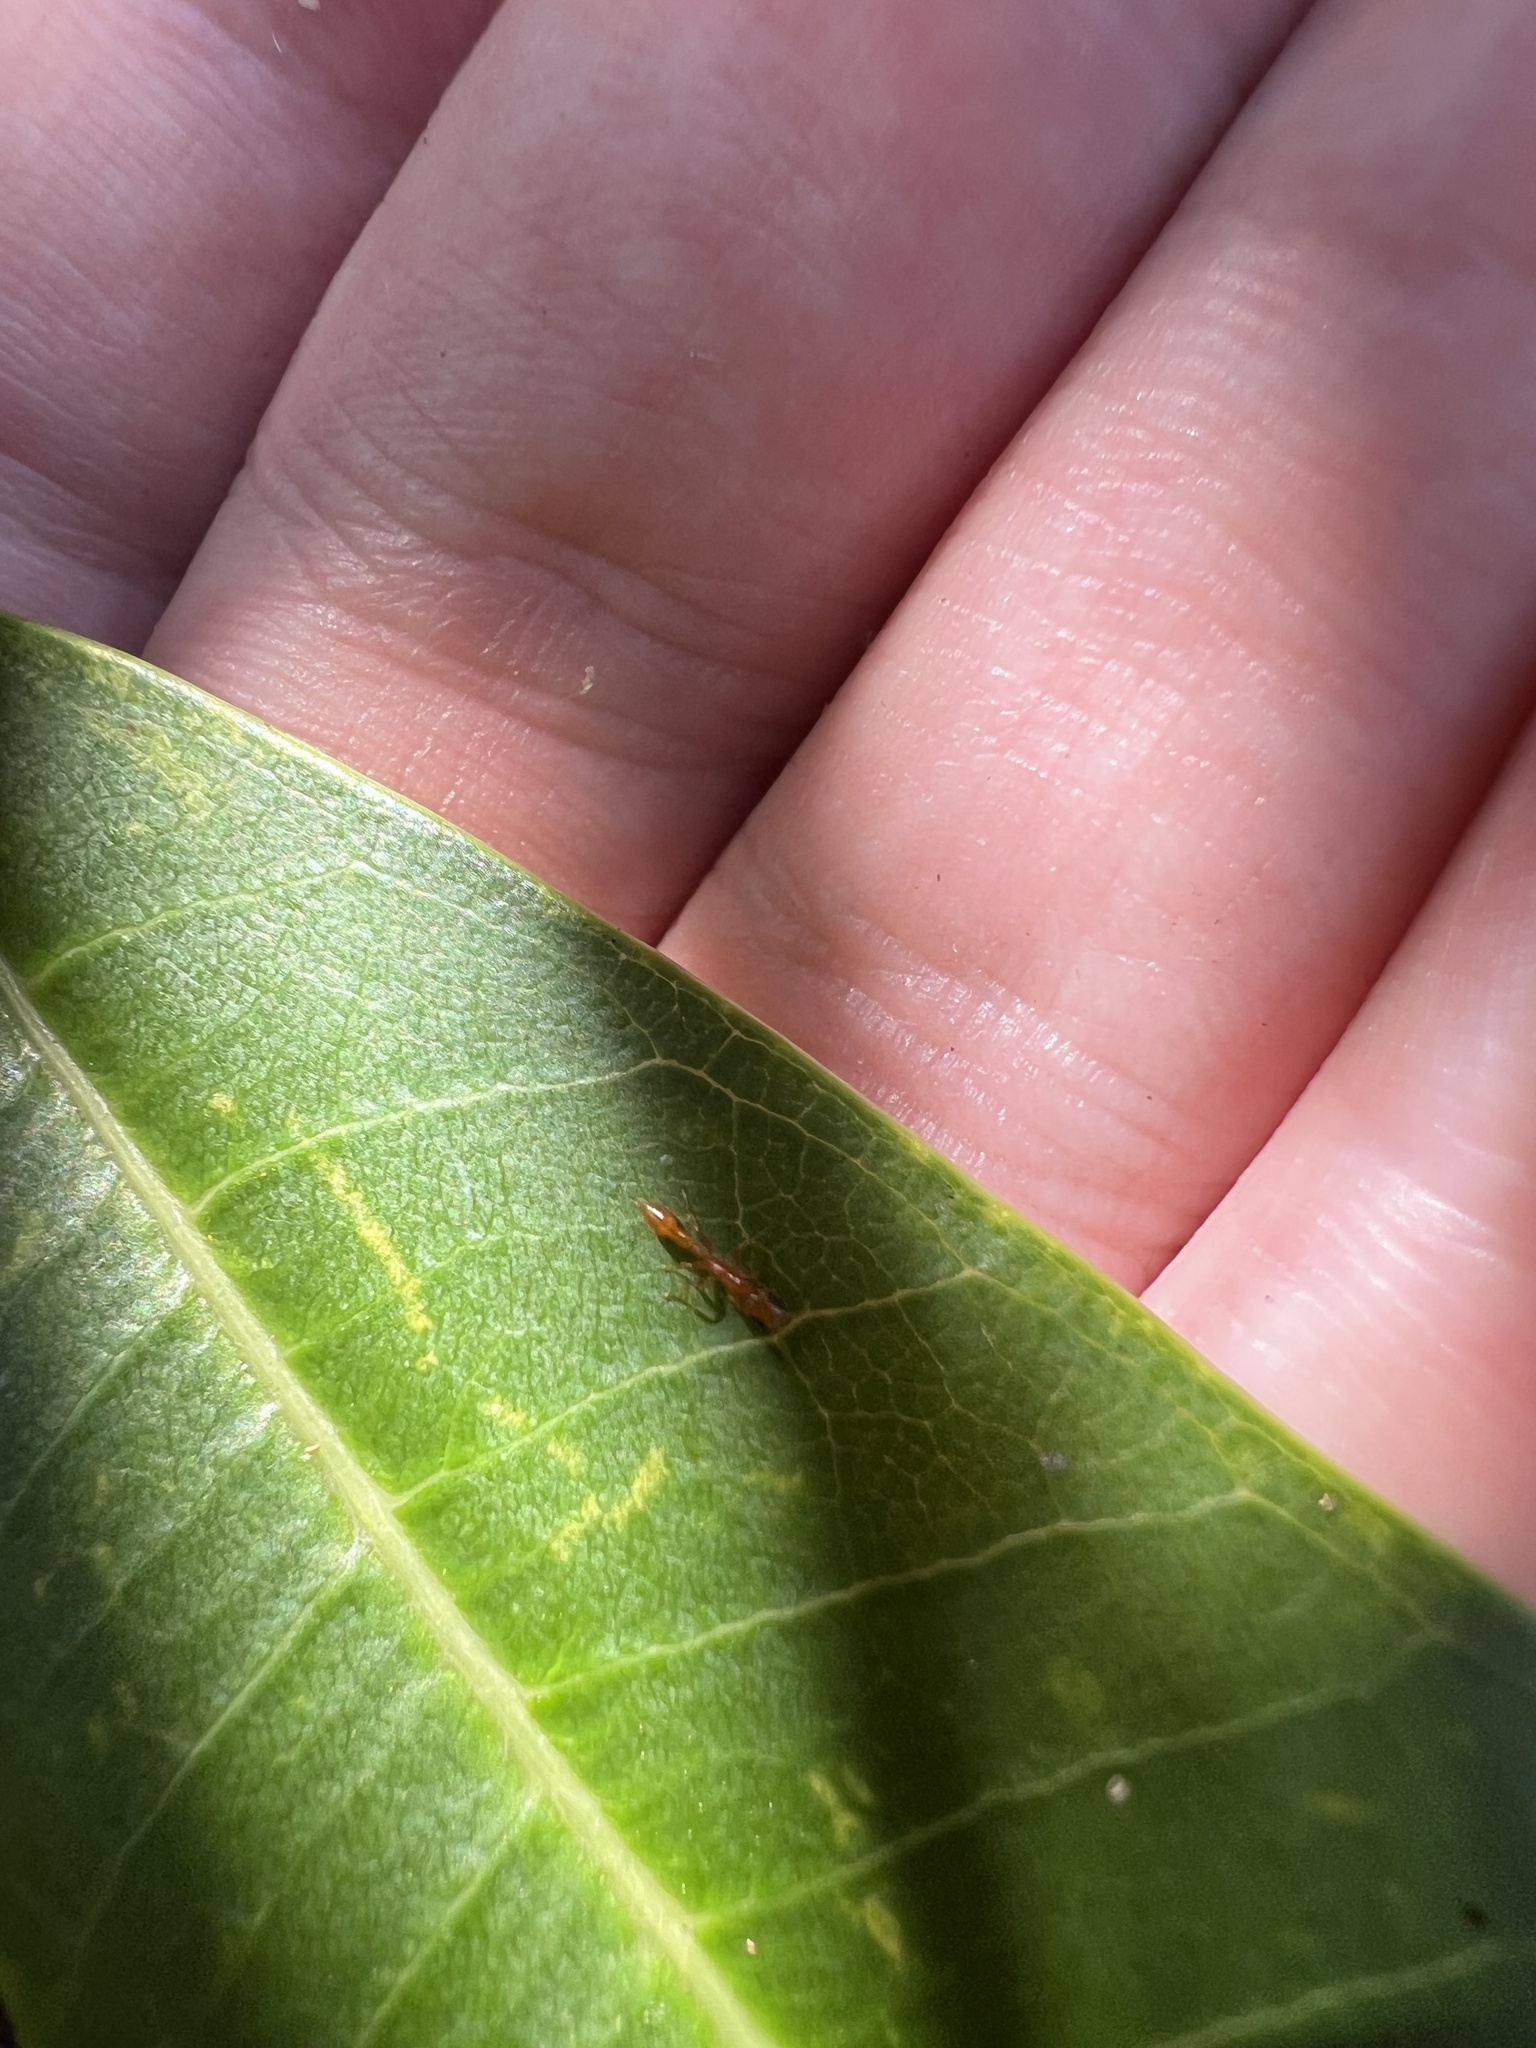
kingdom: Animalia
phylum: Arthropoda
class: Insecta
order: Hymenoptera
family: Formicidae
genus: Pseudomyrmex
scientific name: Pseudomyrmex simplex
